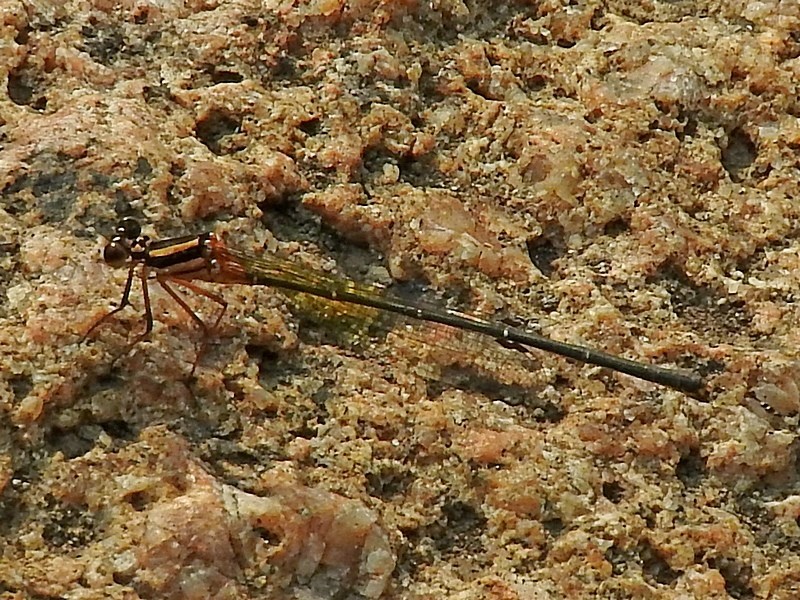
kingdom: Animalia
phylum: Arthropoda
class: Insecta
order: Odonata
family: Platycnemididae
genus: Nososticta
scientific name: Nososticta solida
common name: Orange threadtail
